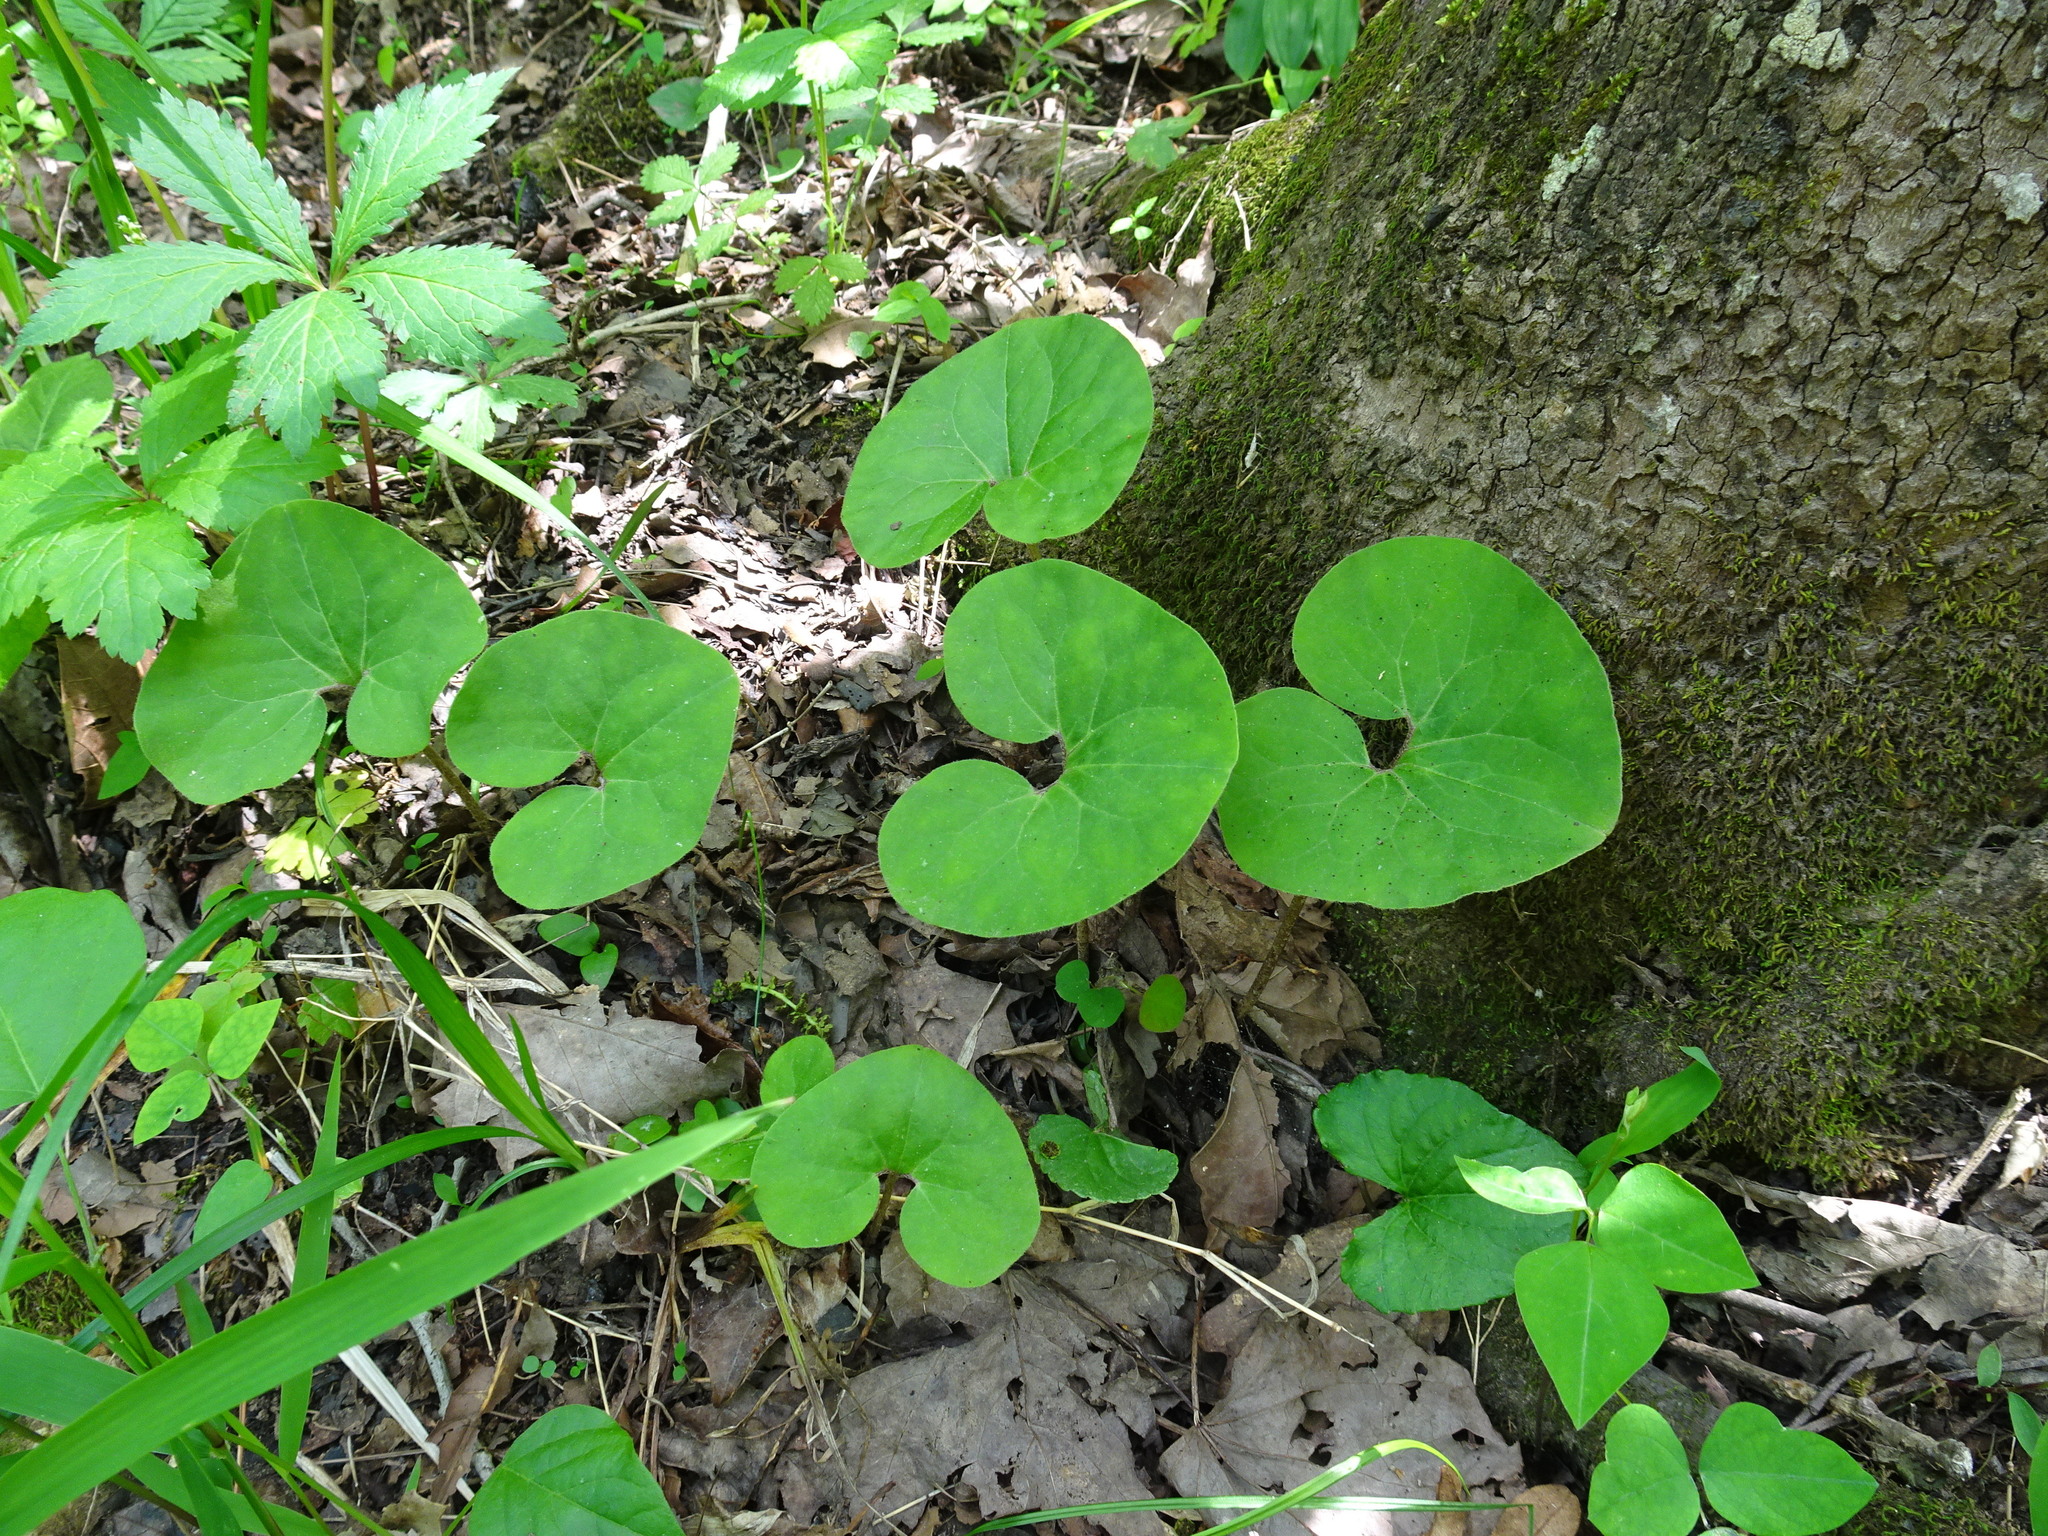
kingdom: Plantae
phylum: Tracheophyta
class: Magnoliopsida
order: Piperales
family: Aristolochiaceae
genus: Asarum
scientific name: Asarum canadense
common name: Wild ginger
